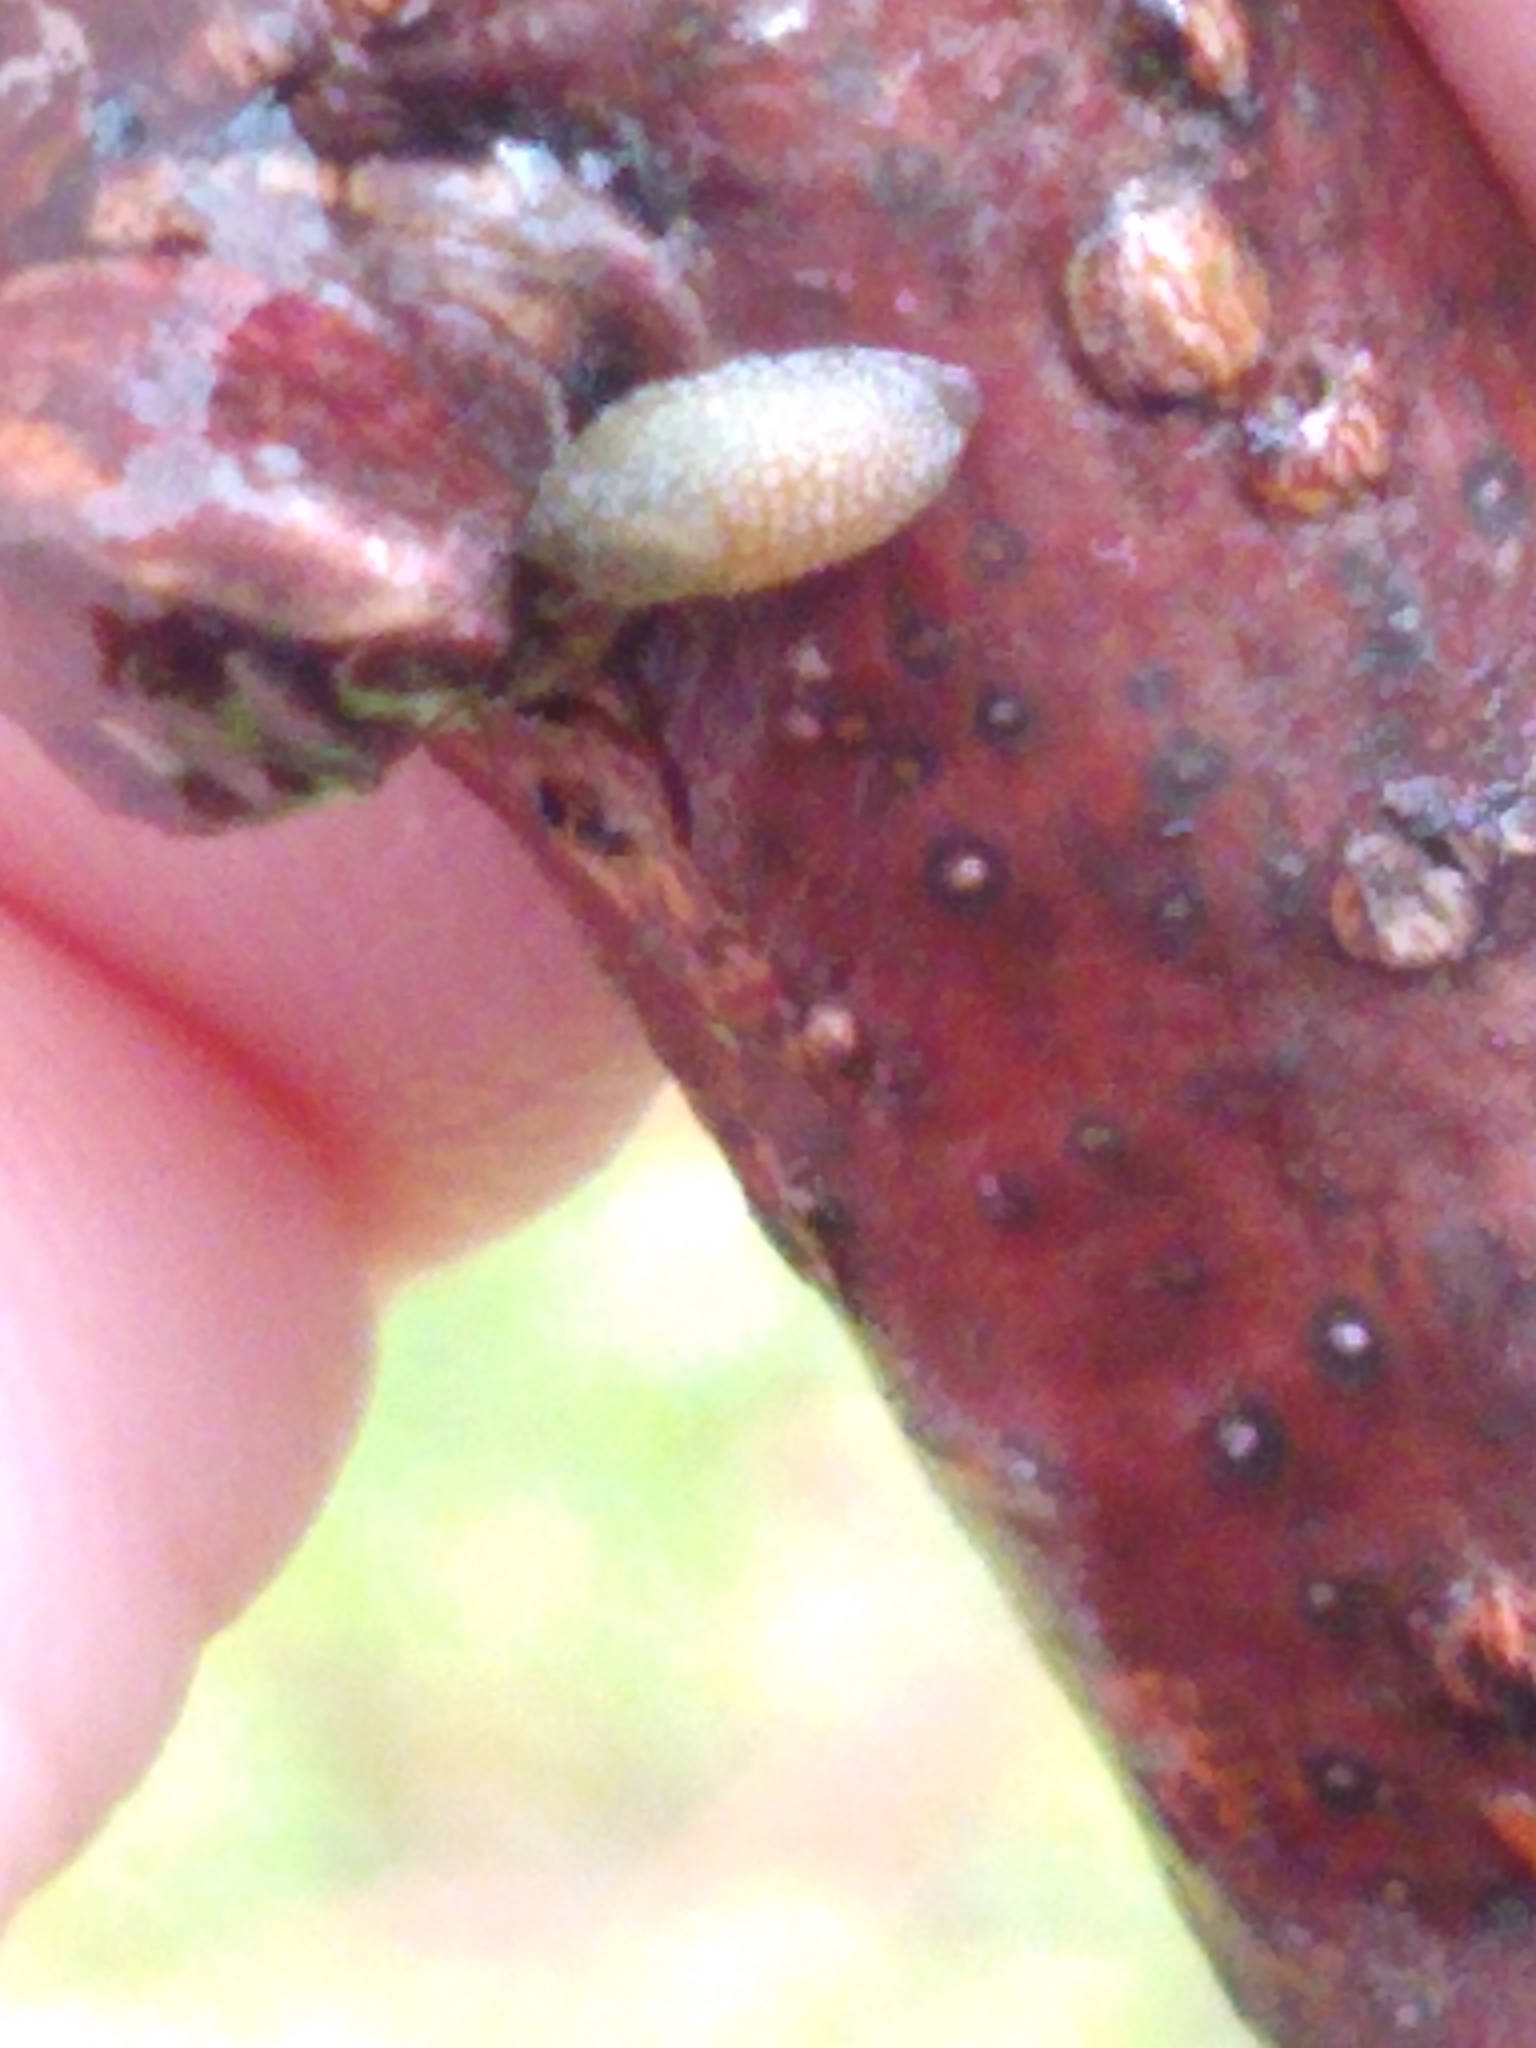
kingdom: Animalia
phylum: Mollusca
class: Gastropoda
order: Stylommatophora
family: Arionidae
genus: Arion
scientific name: Arion intermedius
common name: Hedgehog slug
